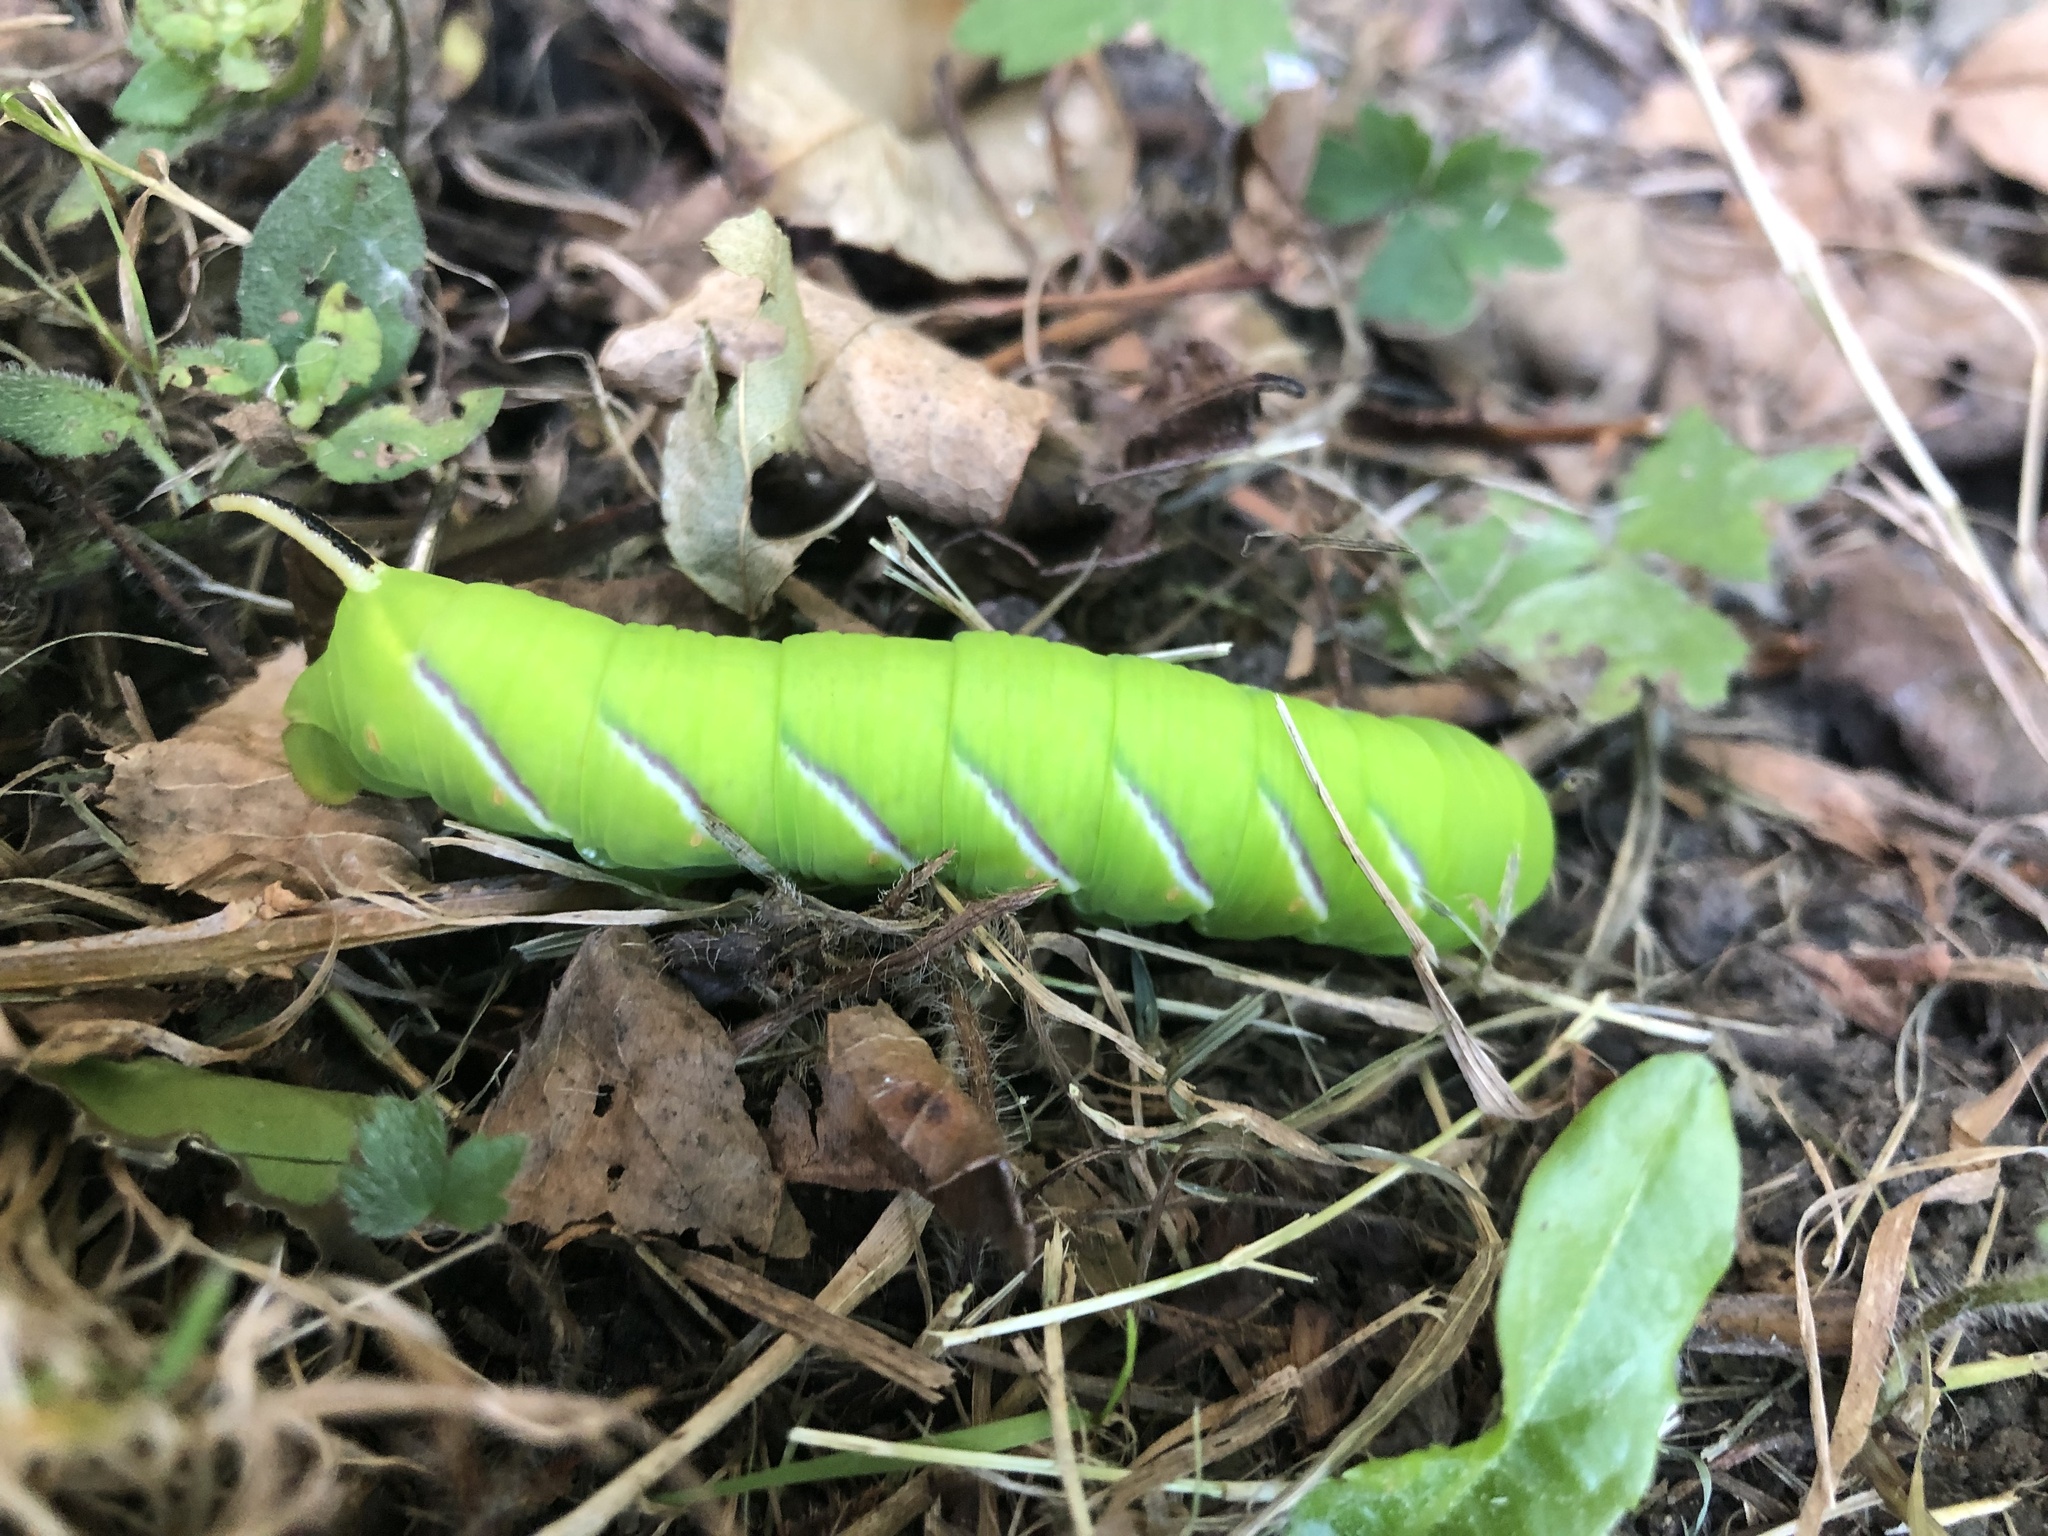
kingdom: Animalia
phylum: Arthropoda
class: Insecta
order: Lepidoptera
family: Sphingidae
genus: Sphinx
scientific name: Sphinx ligustri
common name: Privet hawk-moth
